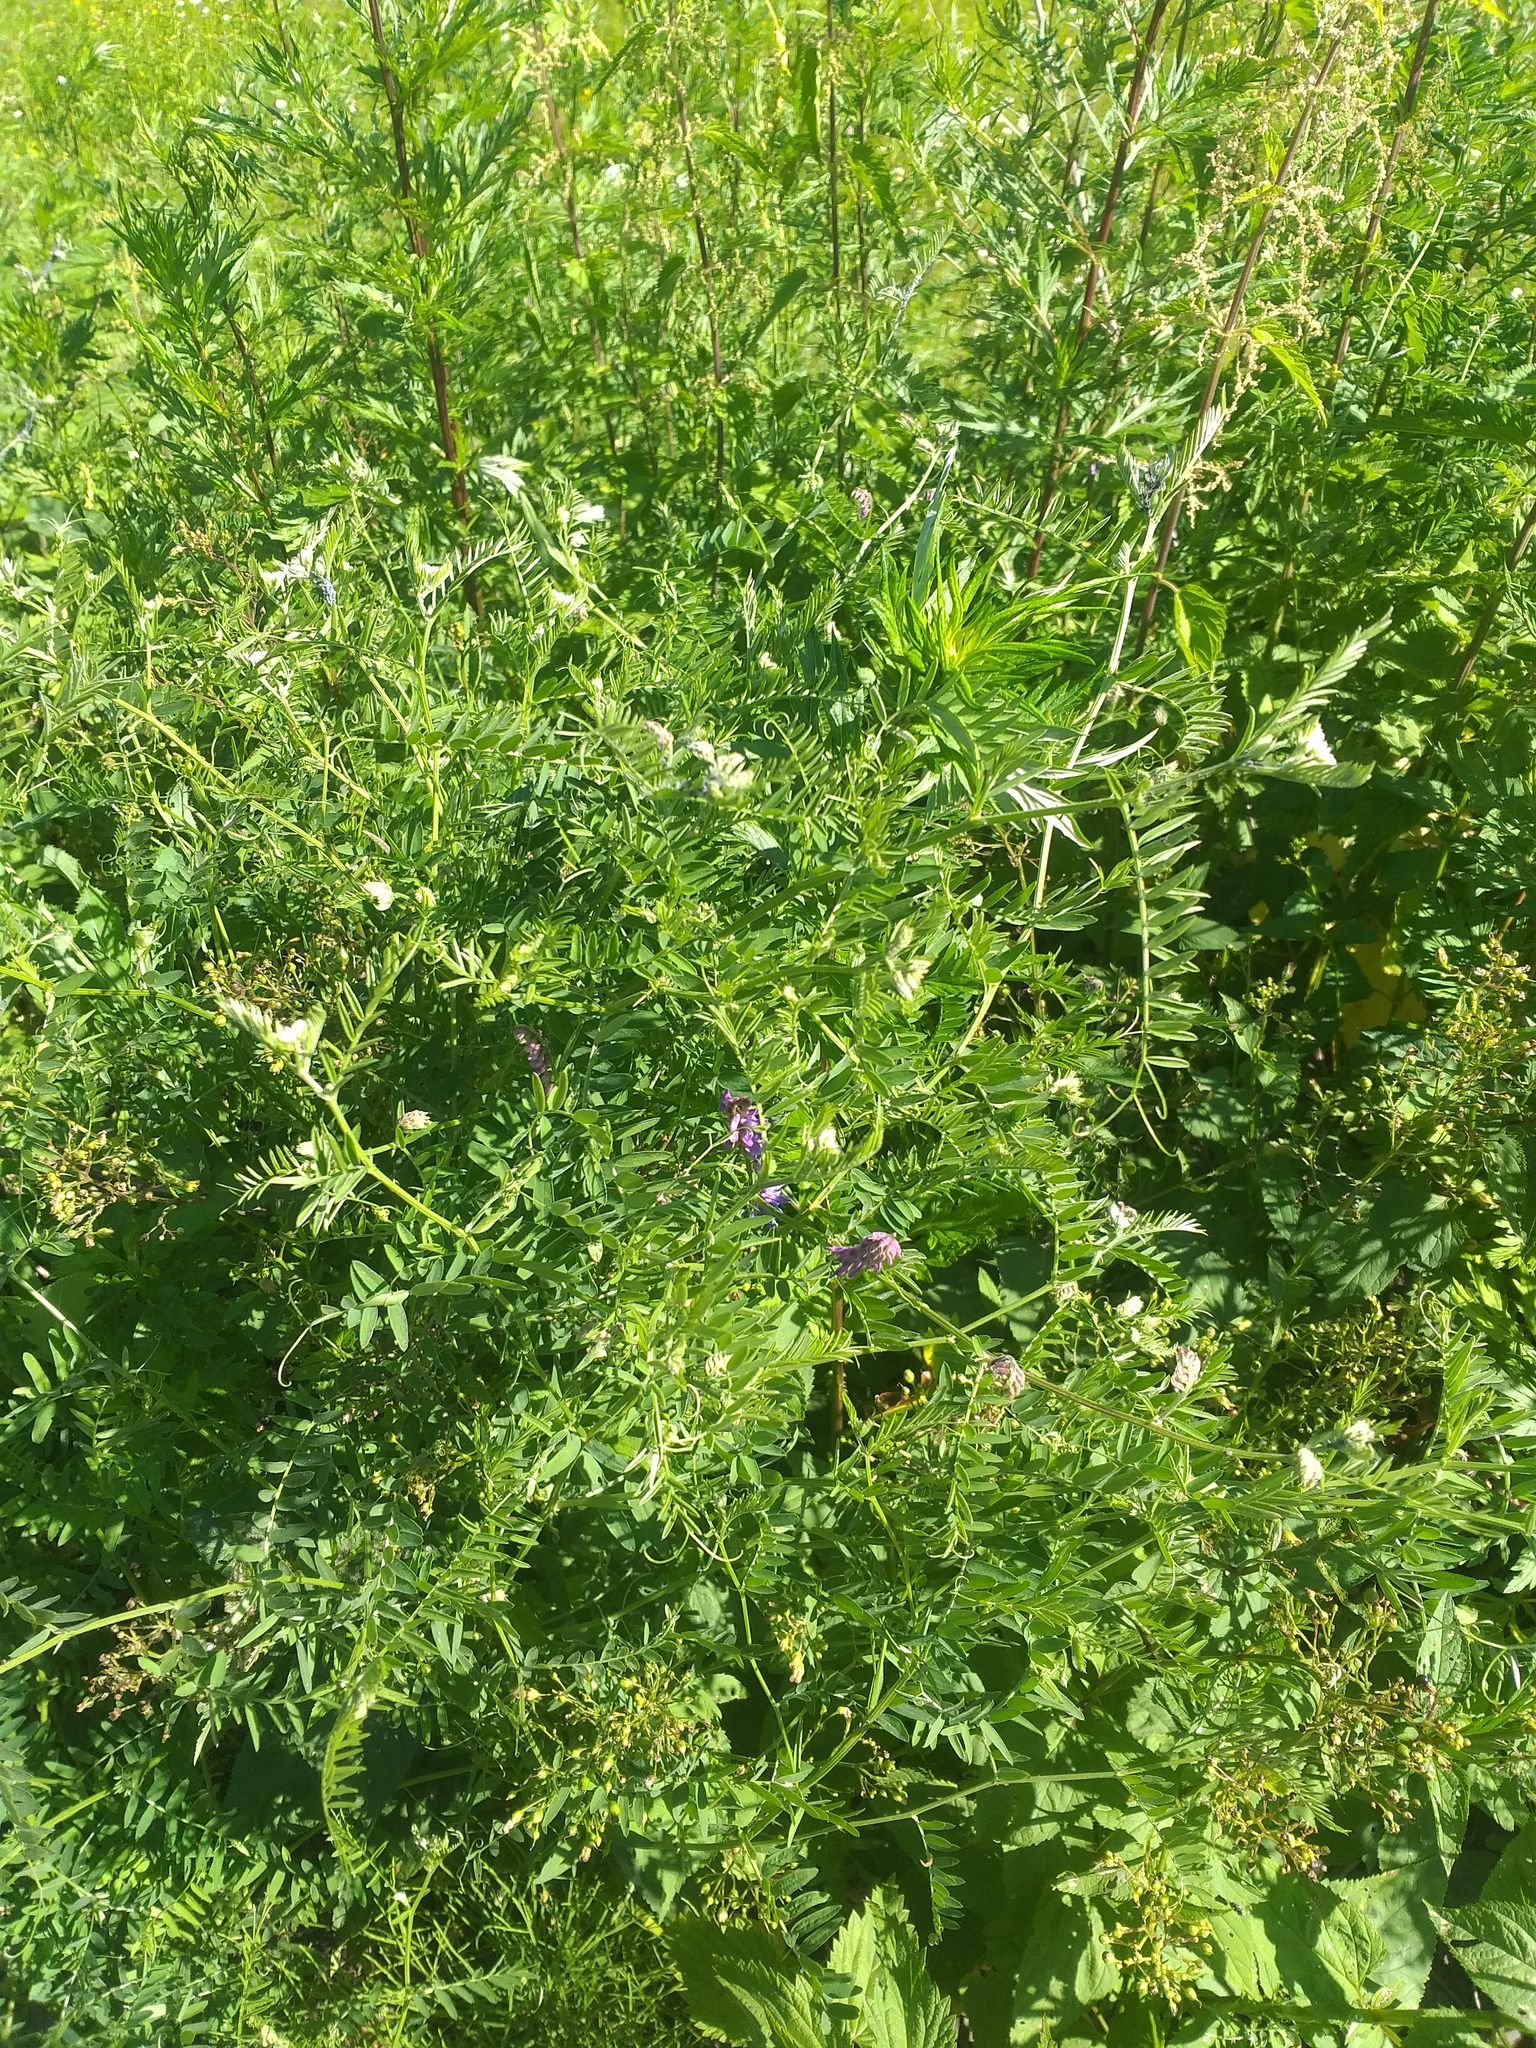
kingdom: Plantae
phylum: Tracheophyta
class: Magnoliopsida
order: Fabales
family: Fabaceae
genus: Vicia
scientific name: Vicia cracca
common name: Bird vetch
